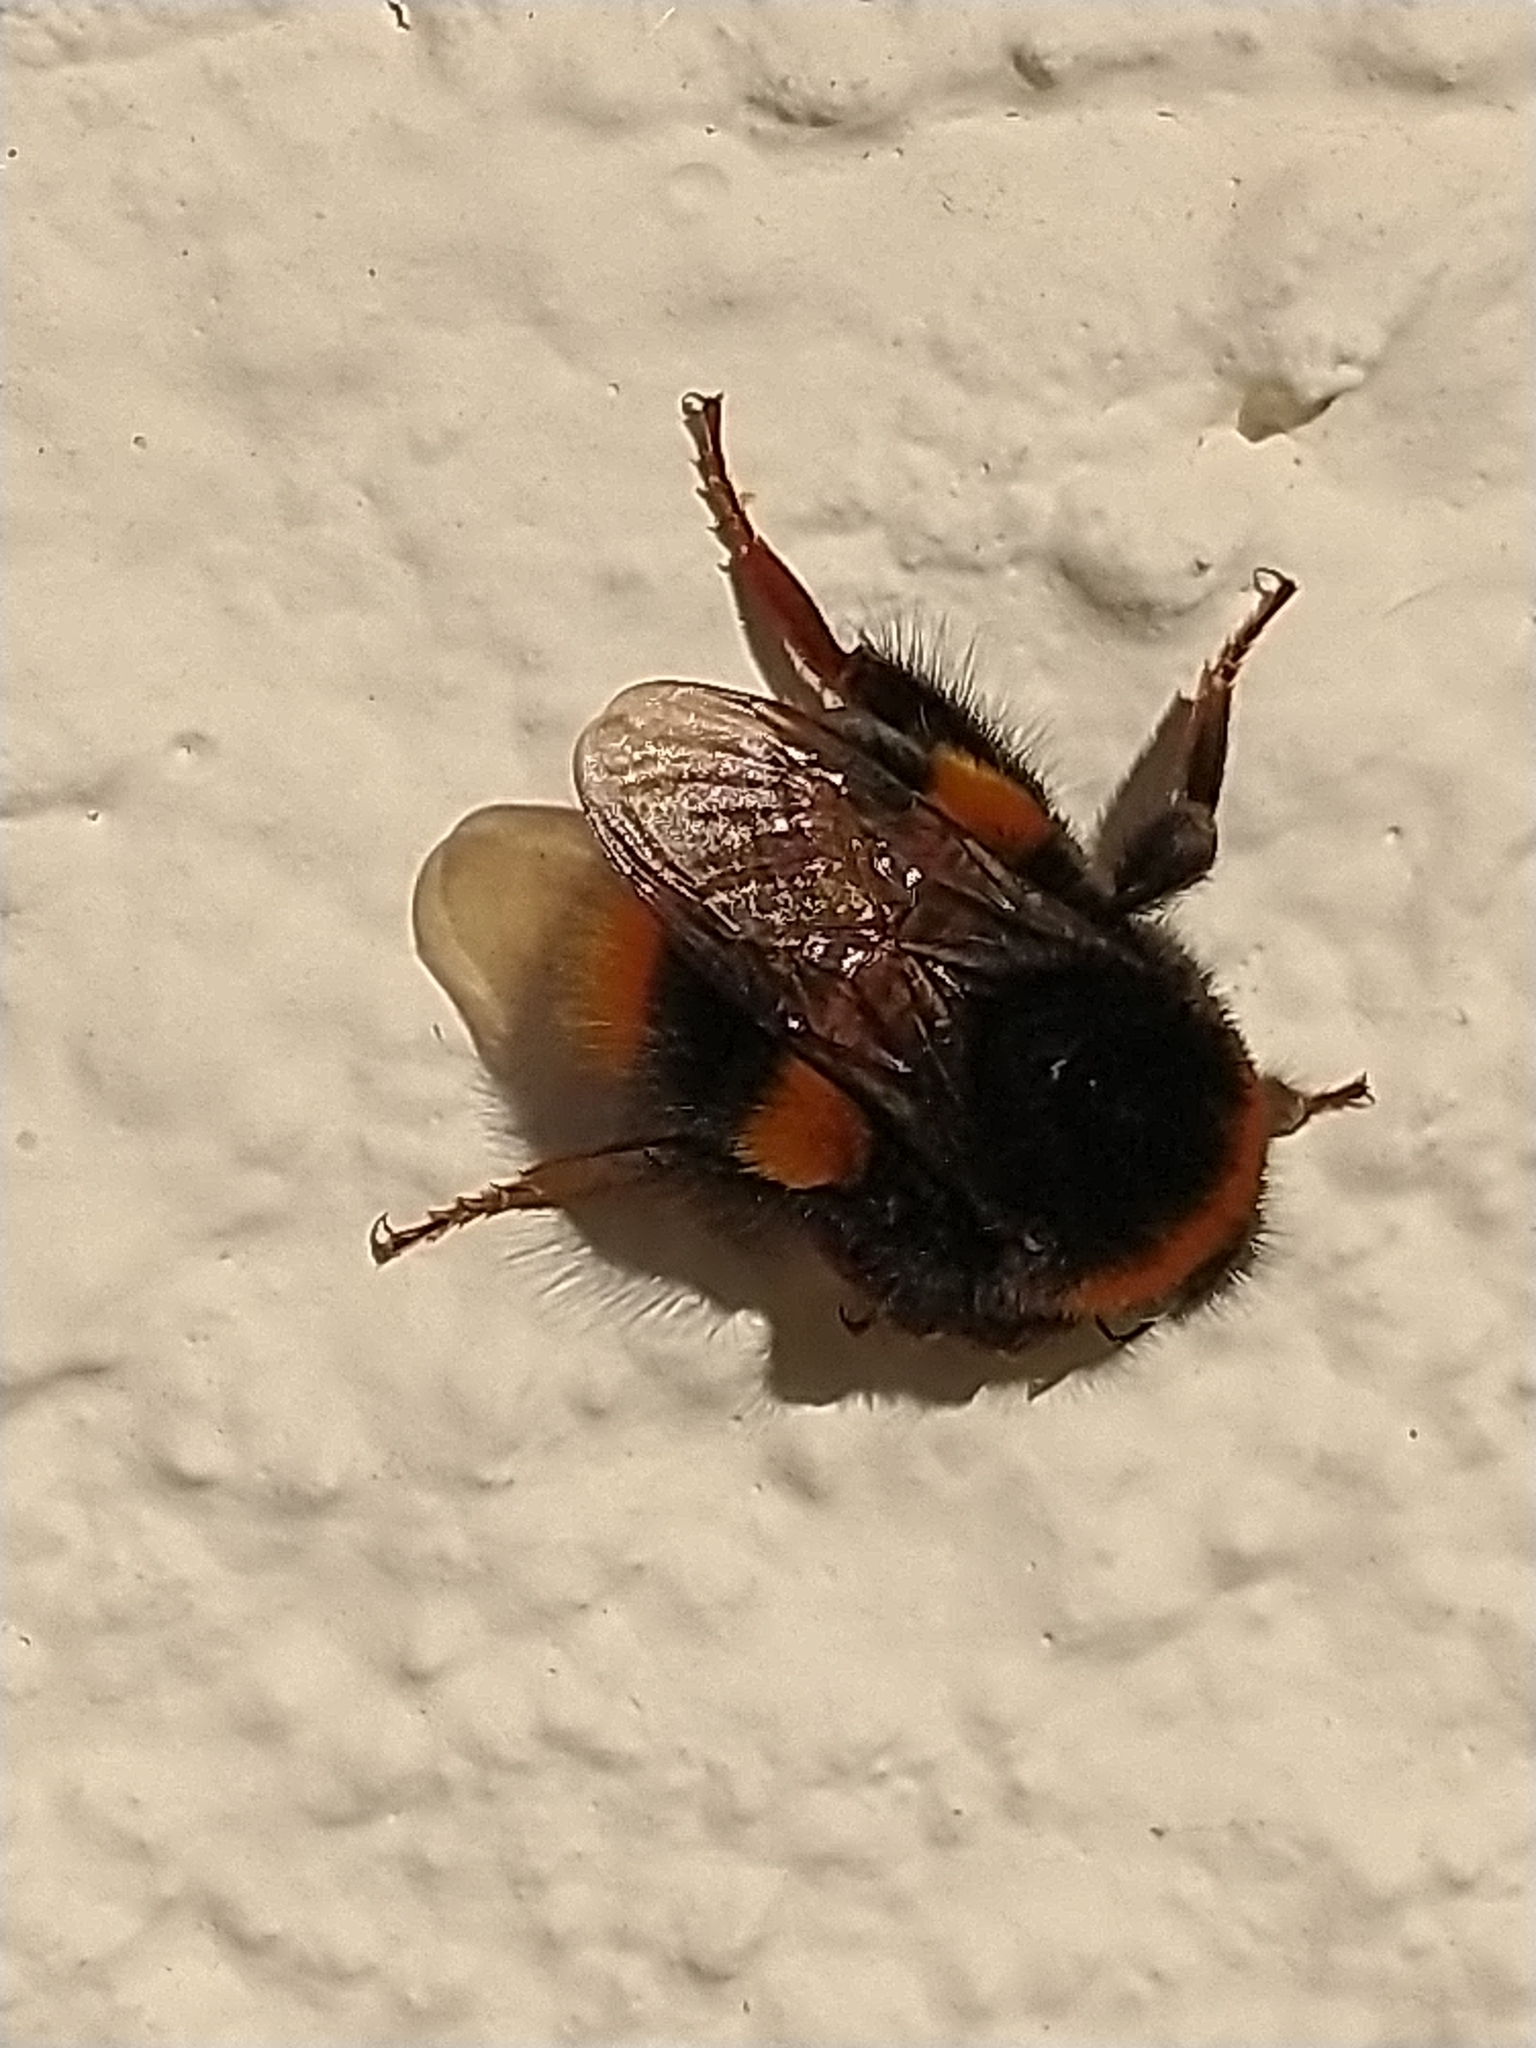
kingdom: Animalia
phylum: Arthropoda
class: Insecta
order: Hymenoptera
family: Apidae
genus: Bombus
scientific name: Bombus terrestris
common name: Buff-tailed bumblebee
